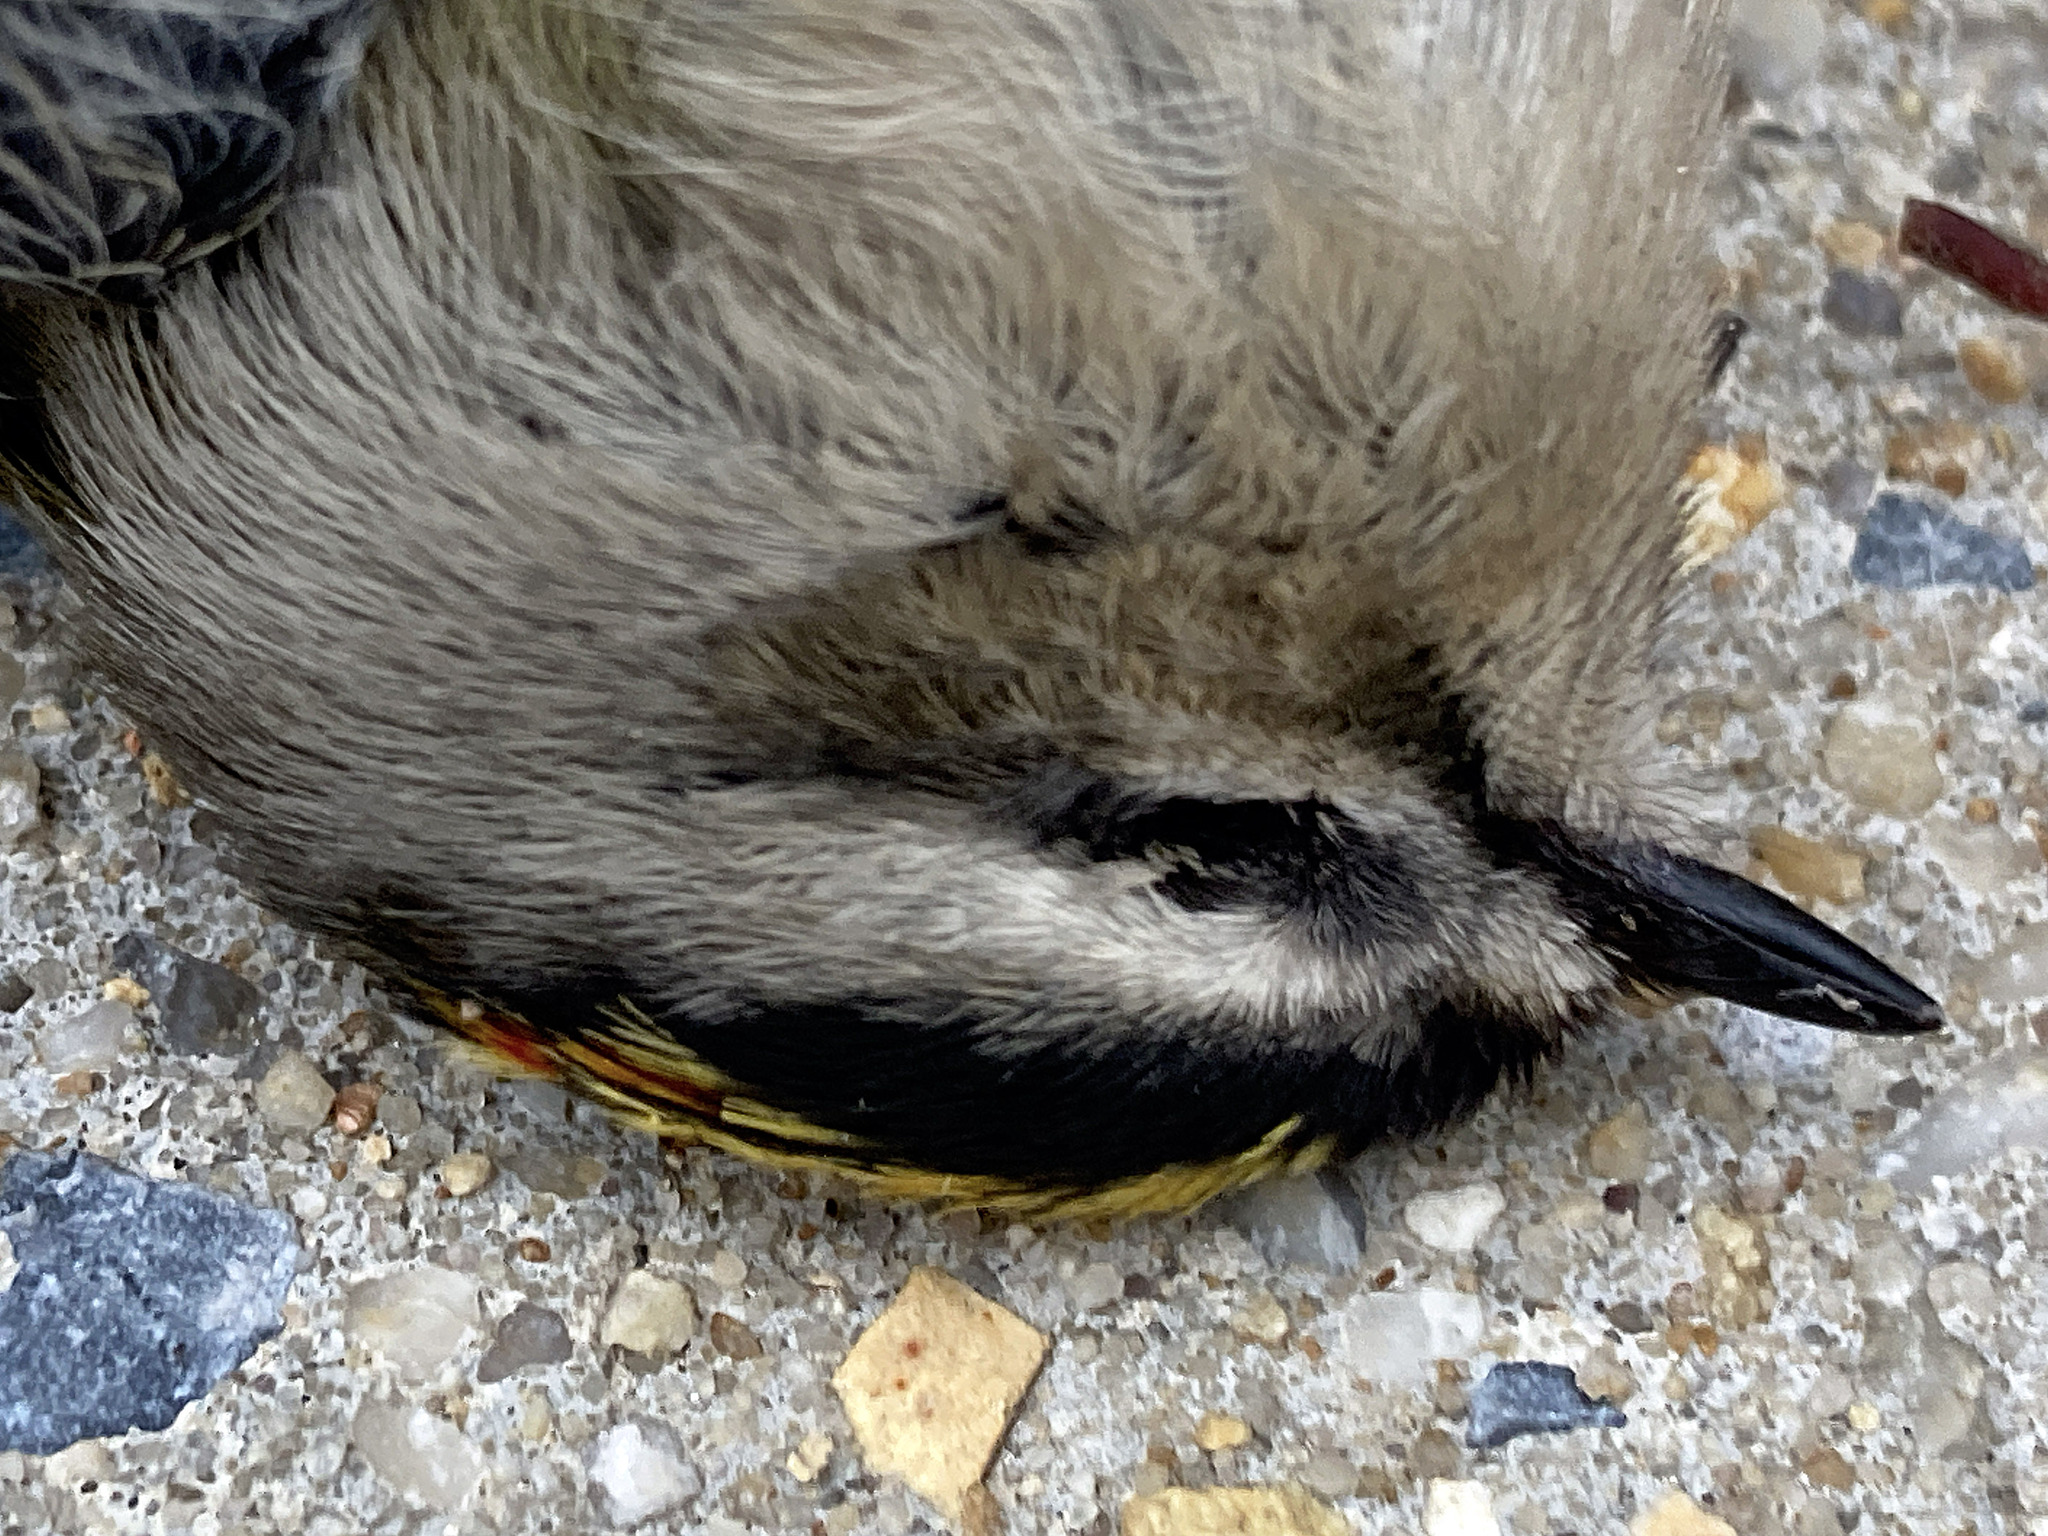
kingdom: Animalia
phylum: Chordata
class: Aves
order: Passeriformes
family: Regulidae
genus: Regulus
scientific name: Regulus satrapa
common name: Golden-crowned kinglet
